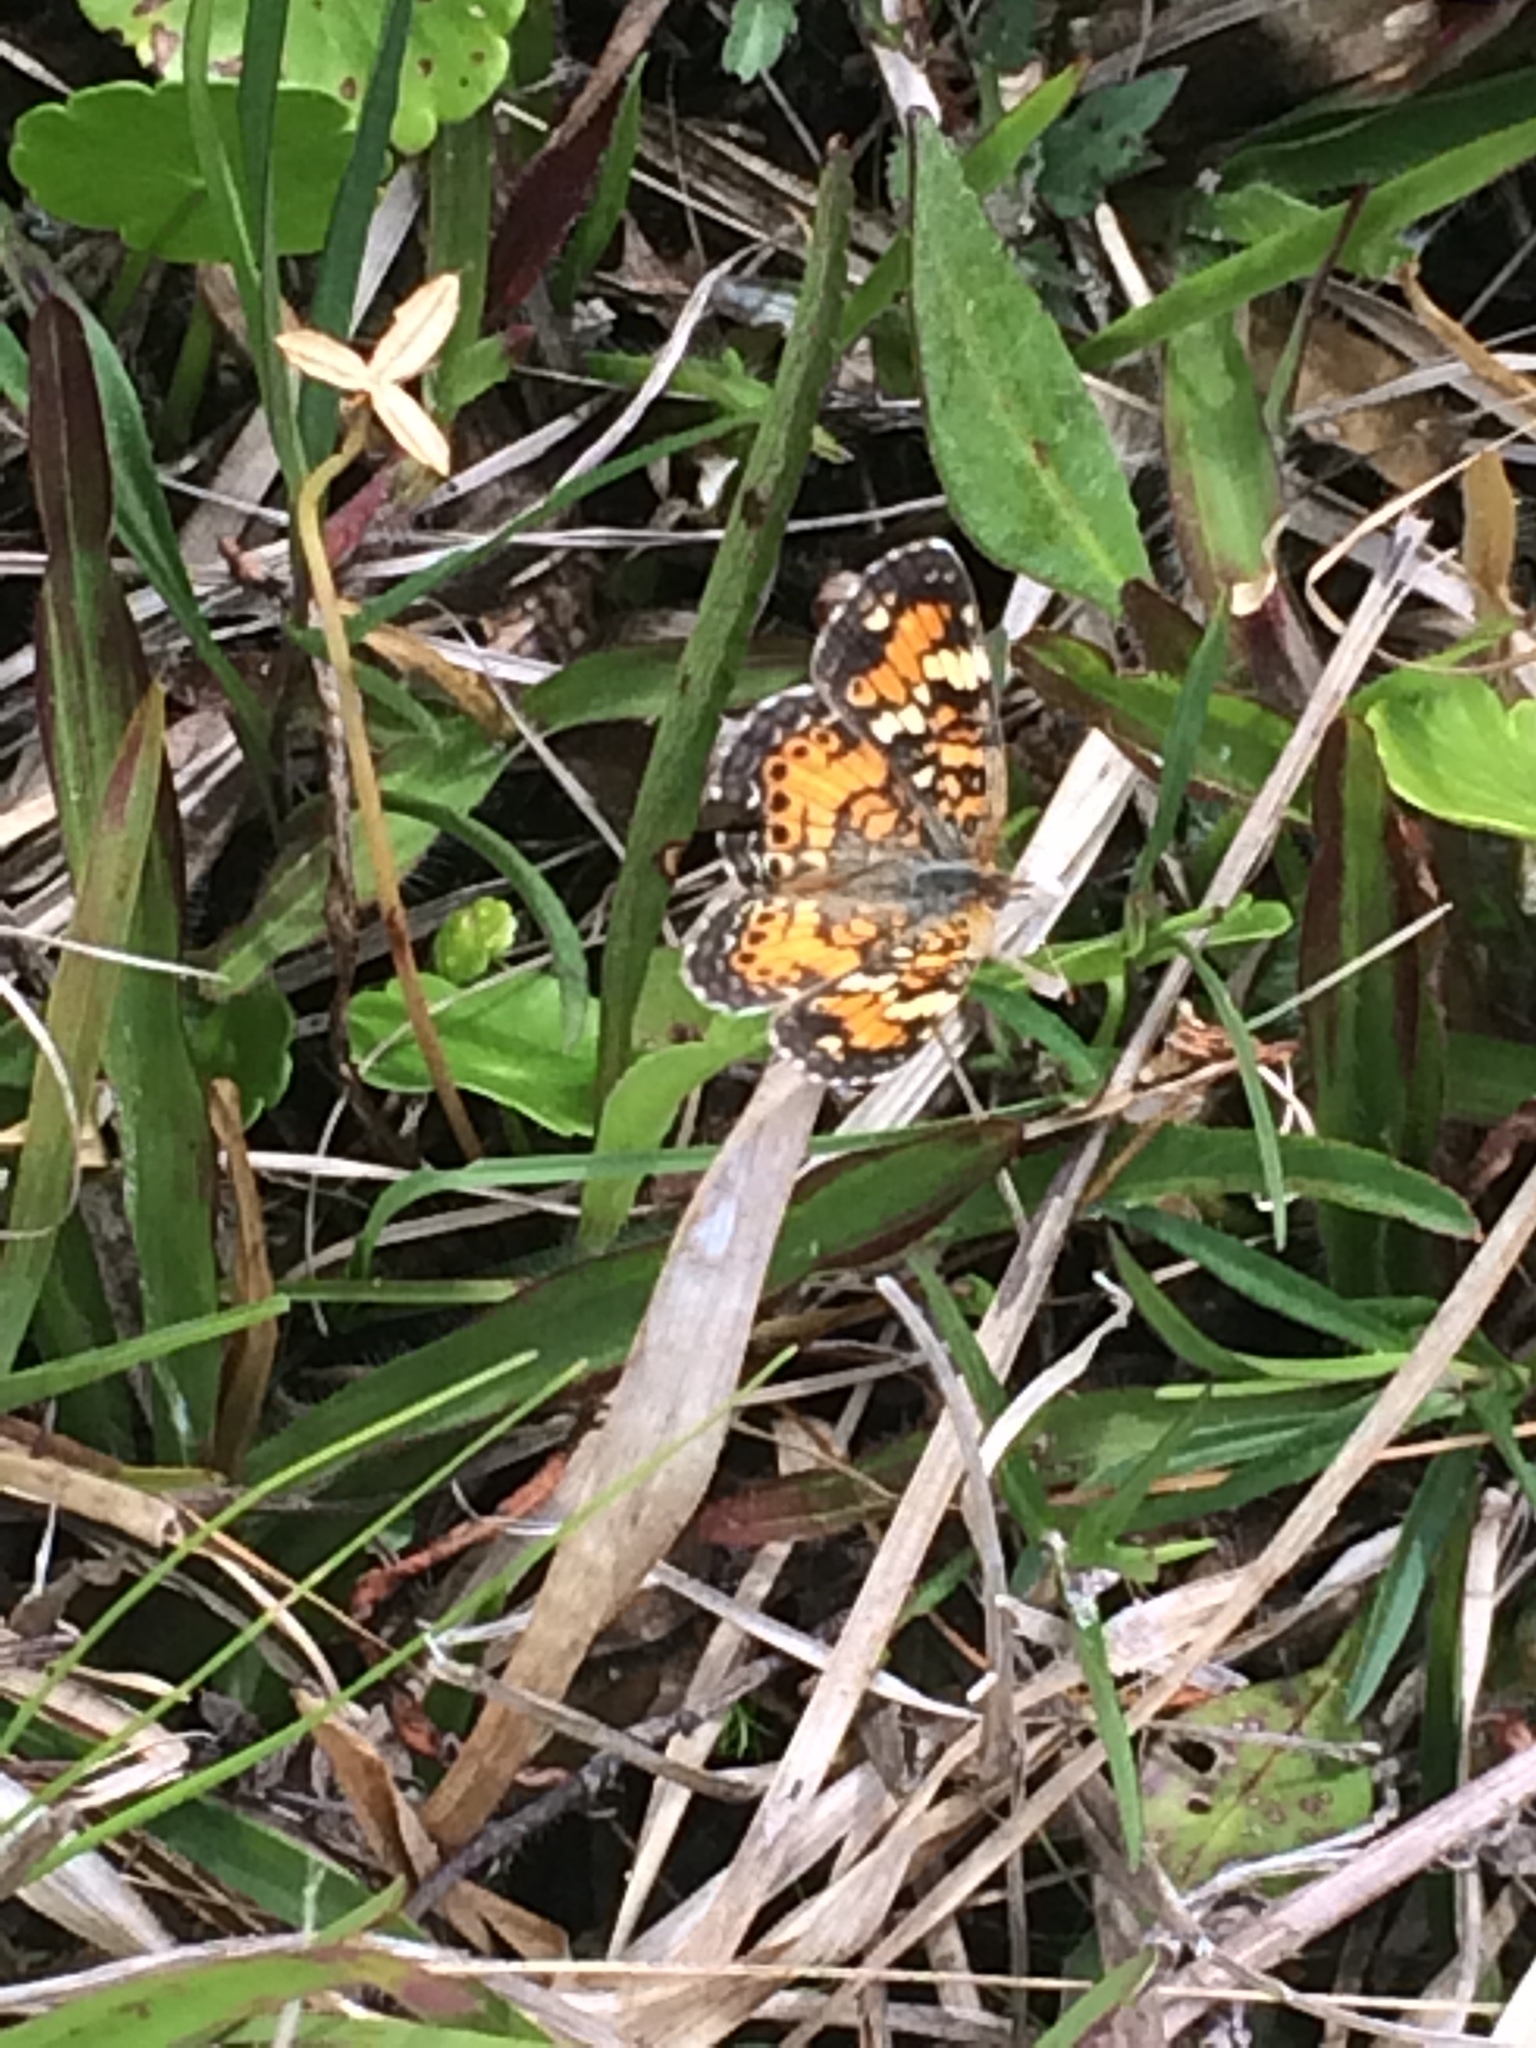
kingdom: Animalia
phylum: Arthropoda
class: Insecta
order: Lepidoptera
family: Nymphalidae
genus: Phyciodes
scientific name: Phyciodes phaon
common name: Phaon crescent
